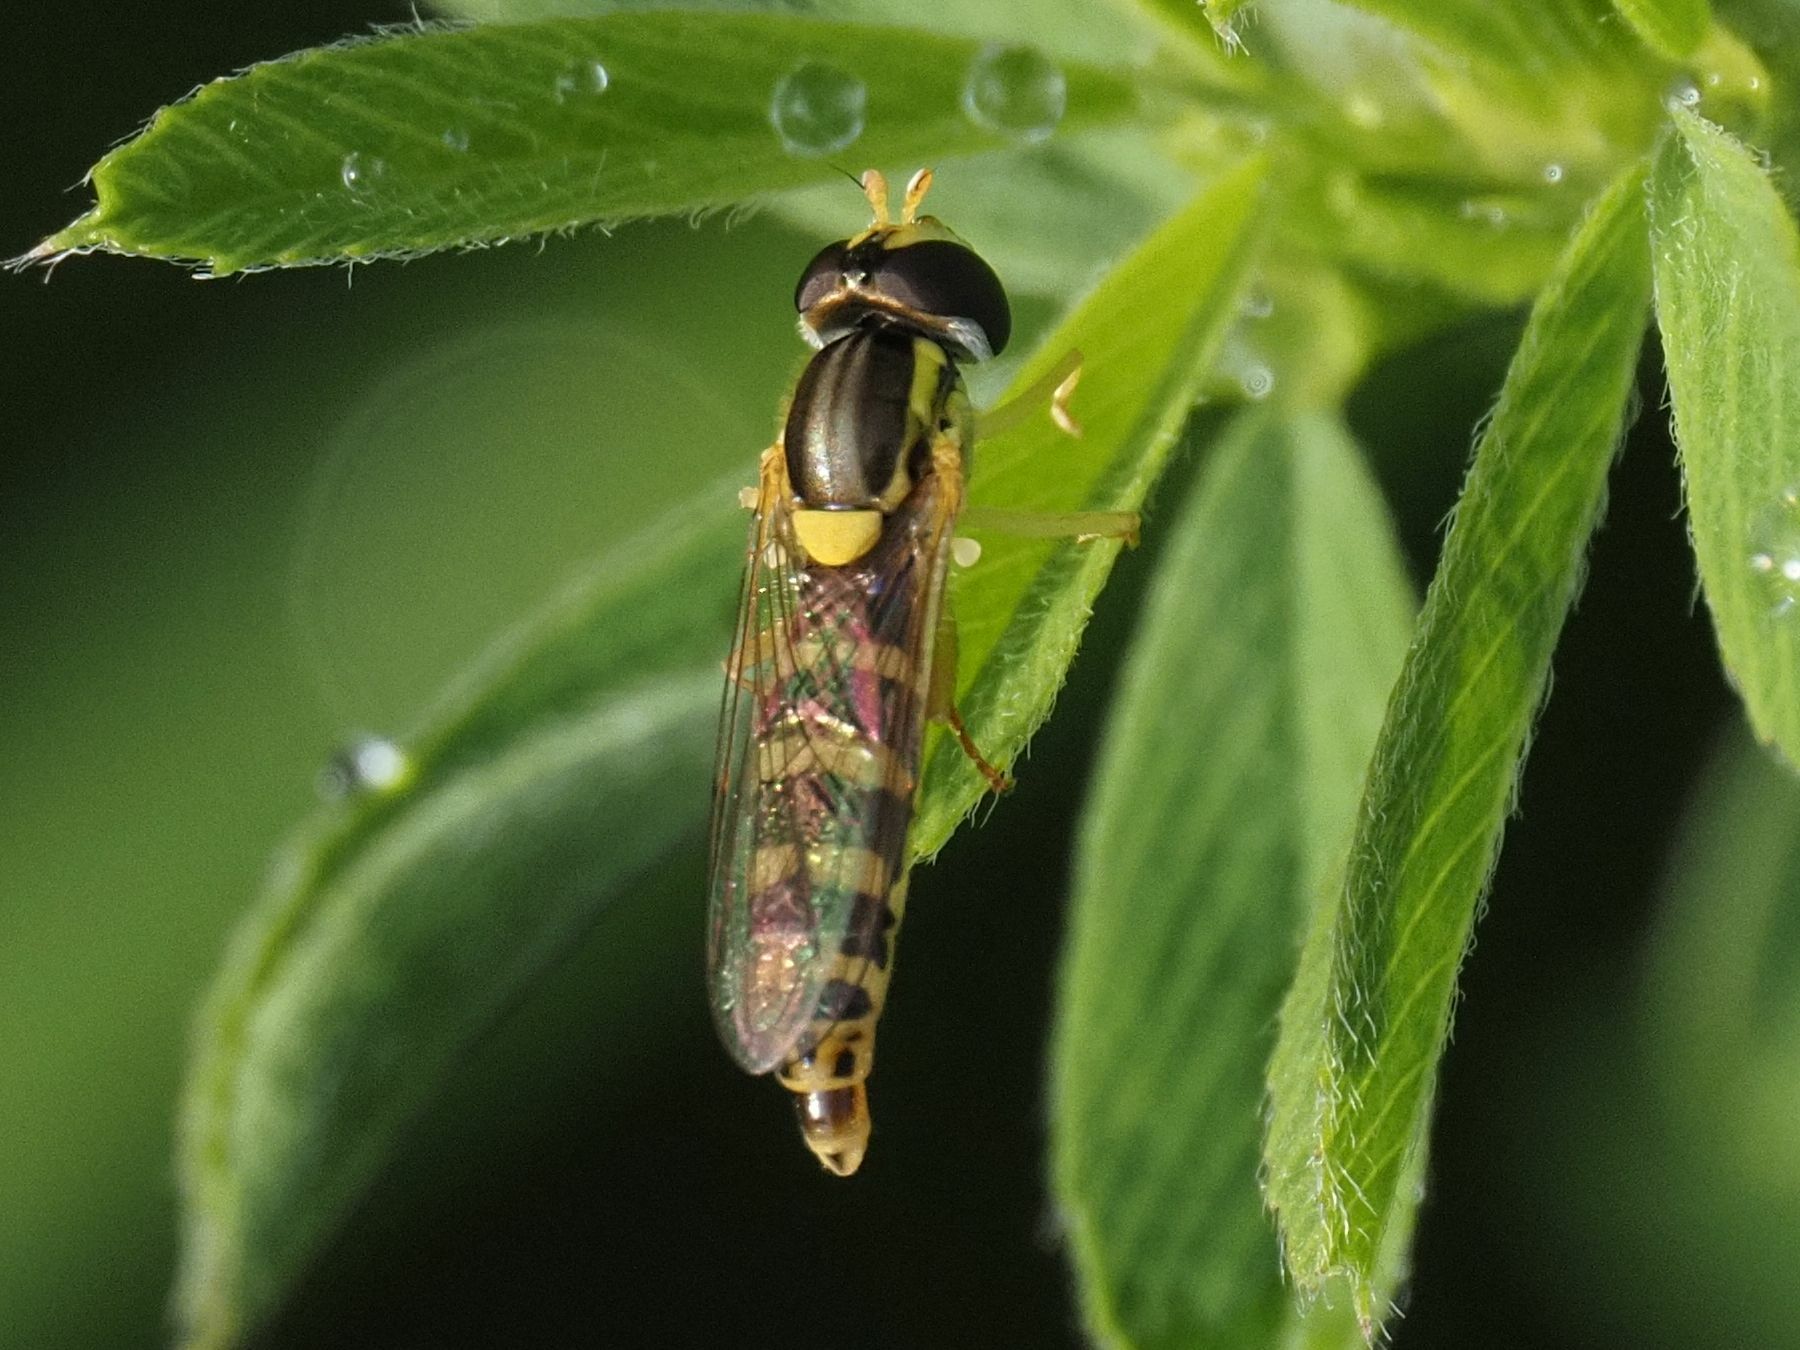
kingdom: Animalia
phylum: Arthropoda
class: Insecta
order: Diptera
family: Syrphidae
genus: Sphaerophoria
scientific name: Sphaerophoria
